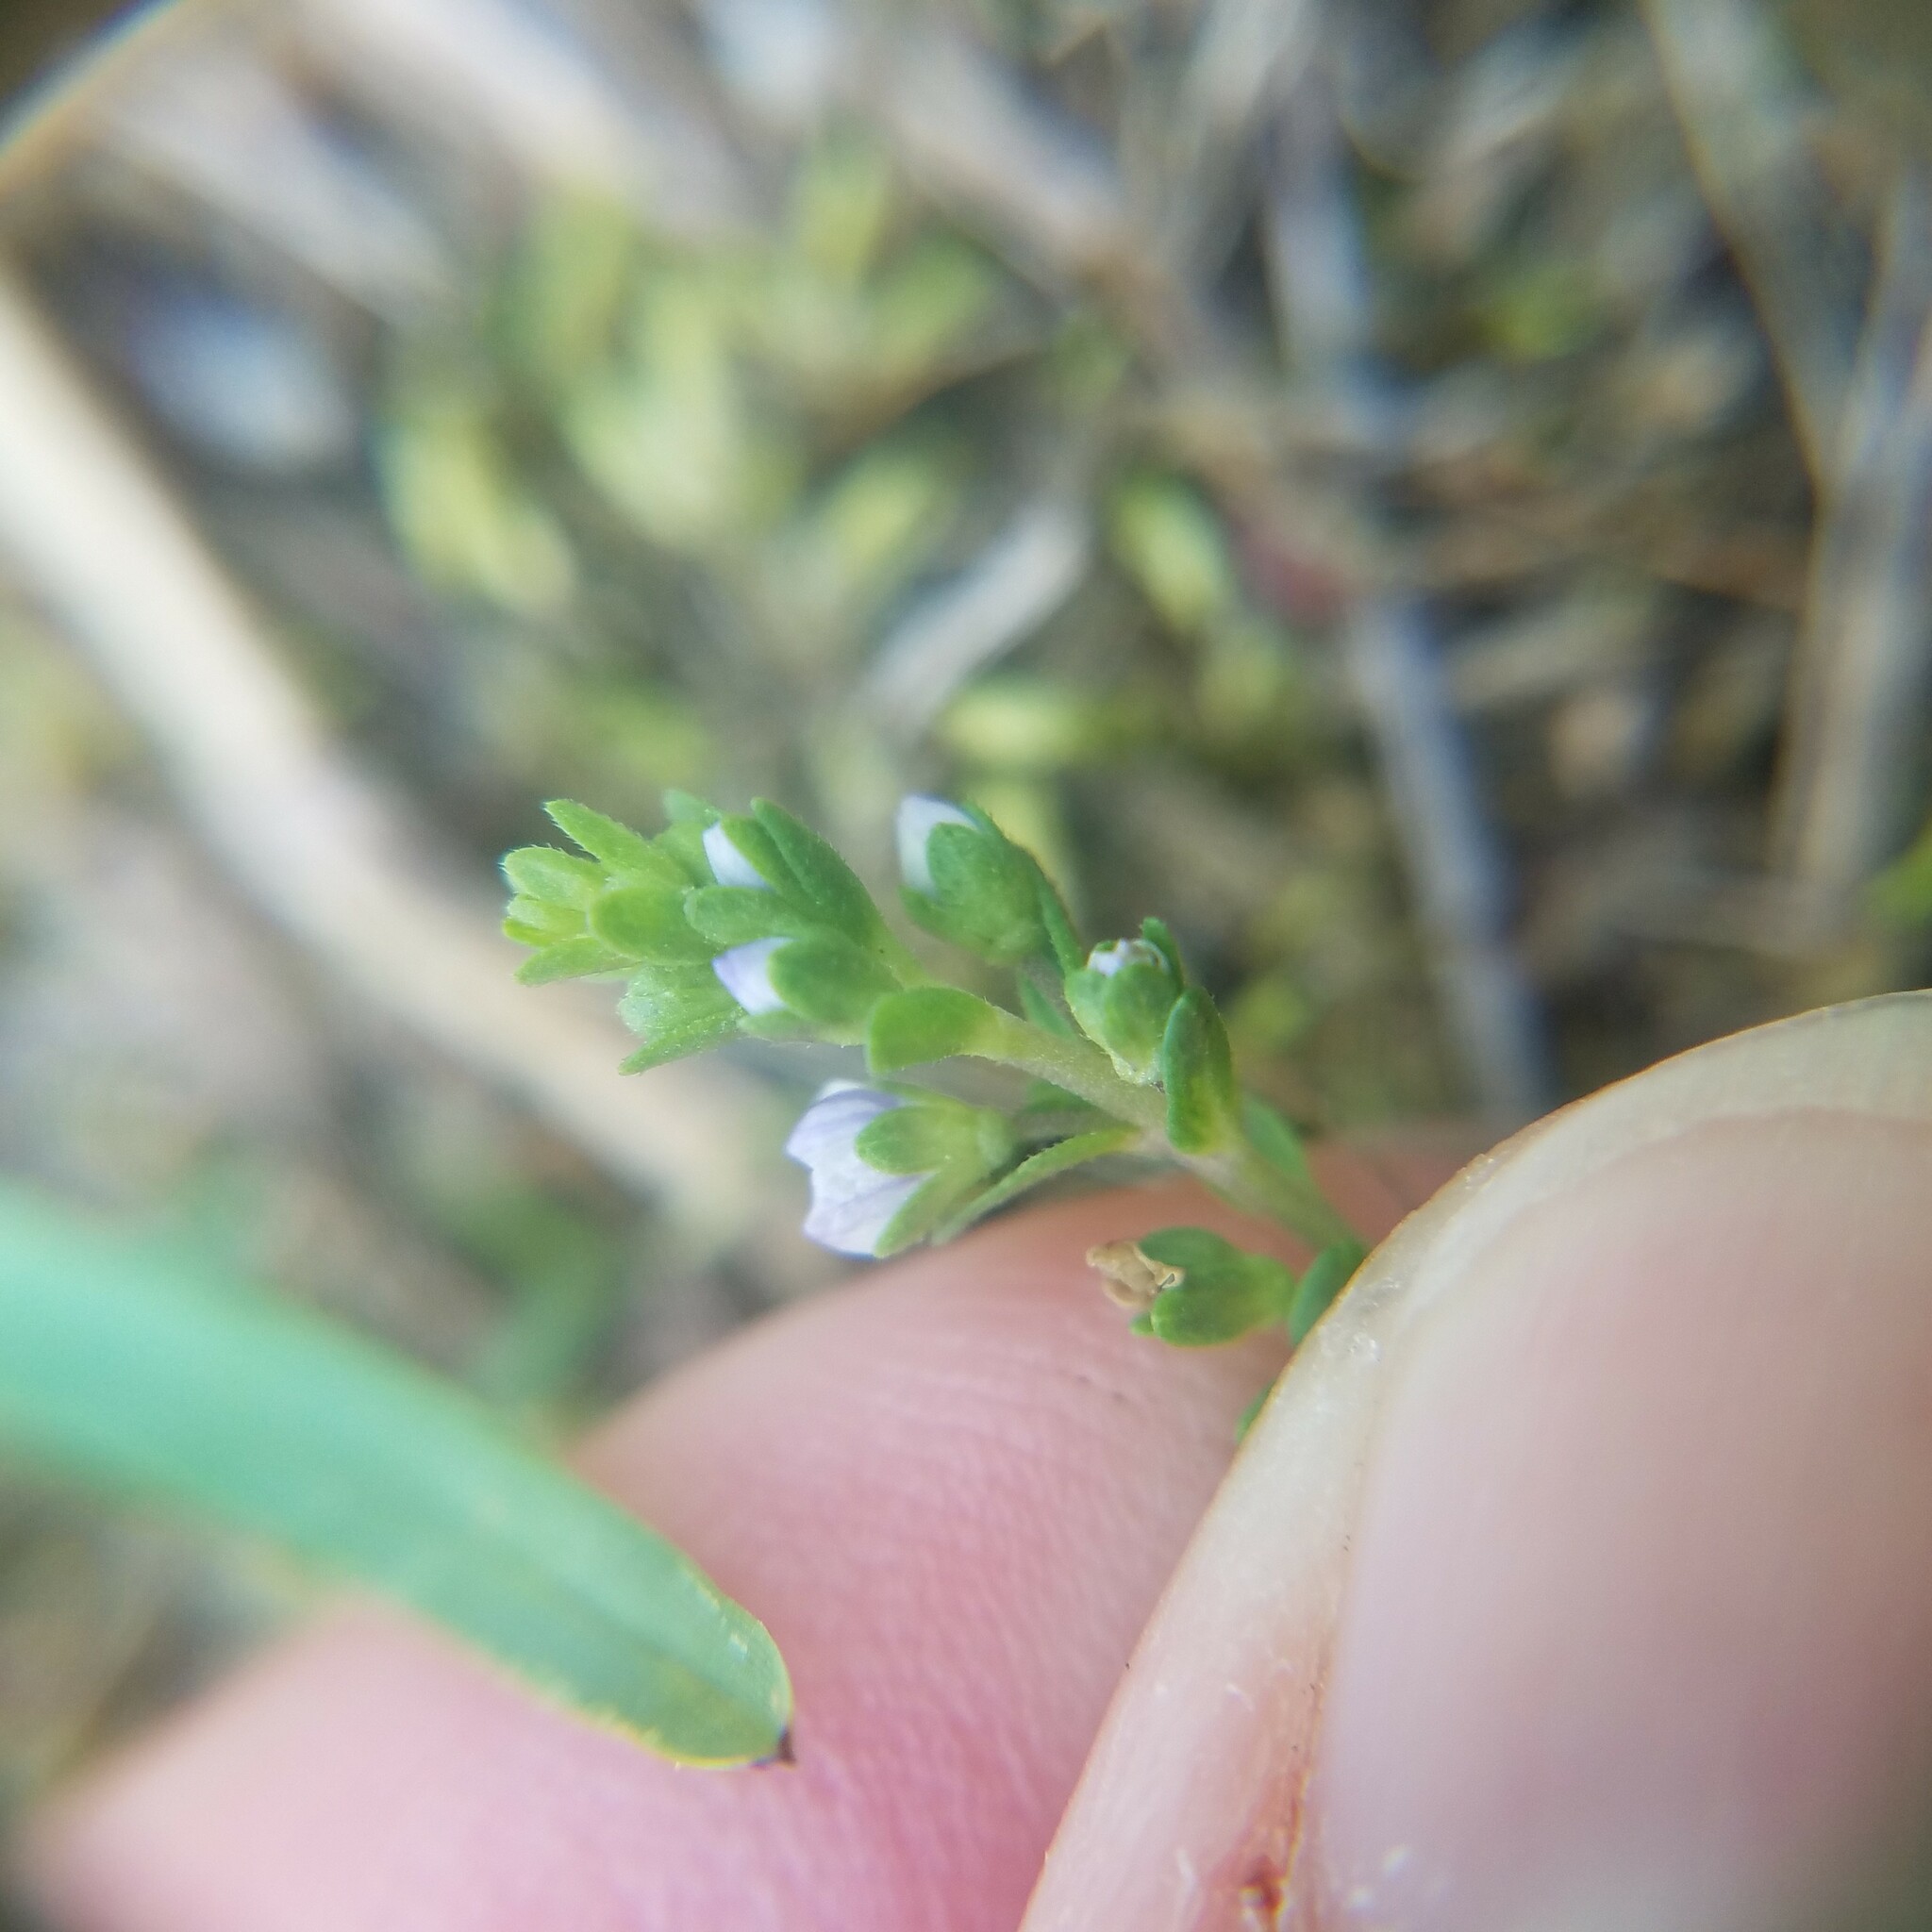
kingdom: Plantae
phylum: Tracheophyta
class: Magnoliopsida
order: Lamiales
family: Plantaginaceae
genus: Veronica
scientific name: Veronica serpyllifolia
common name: Thyme-leaved speedwell
